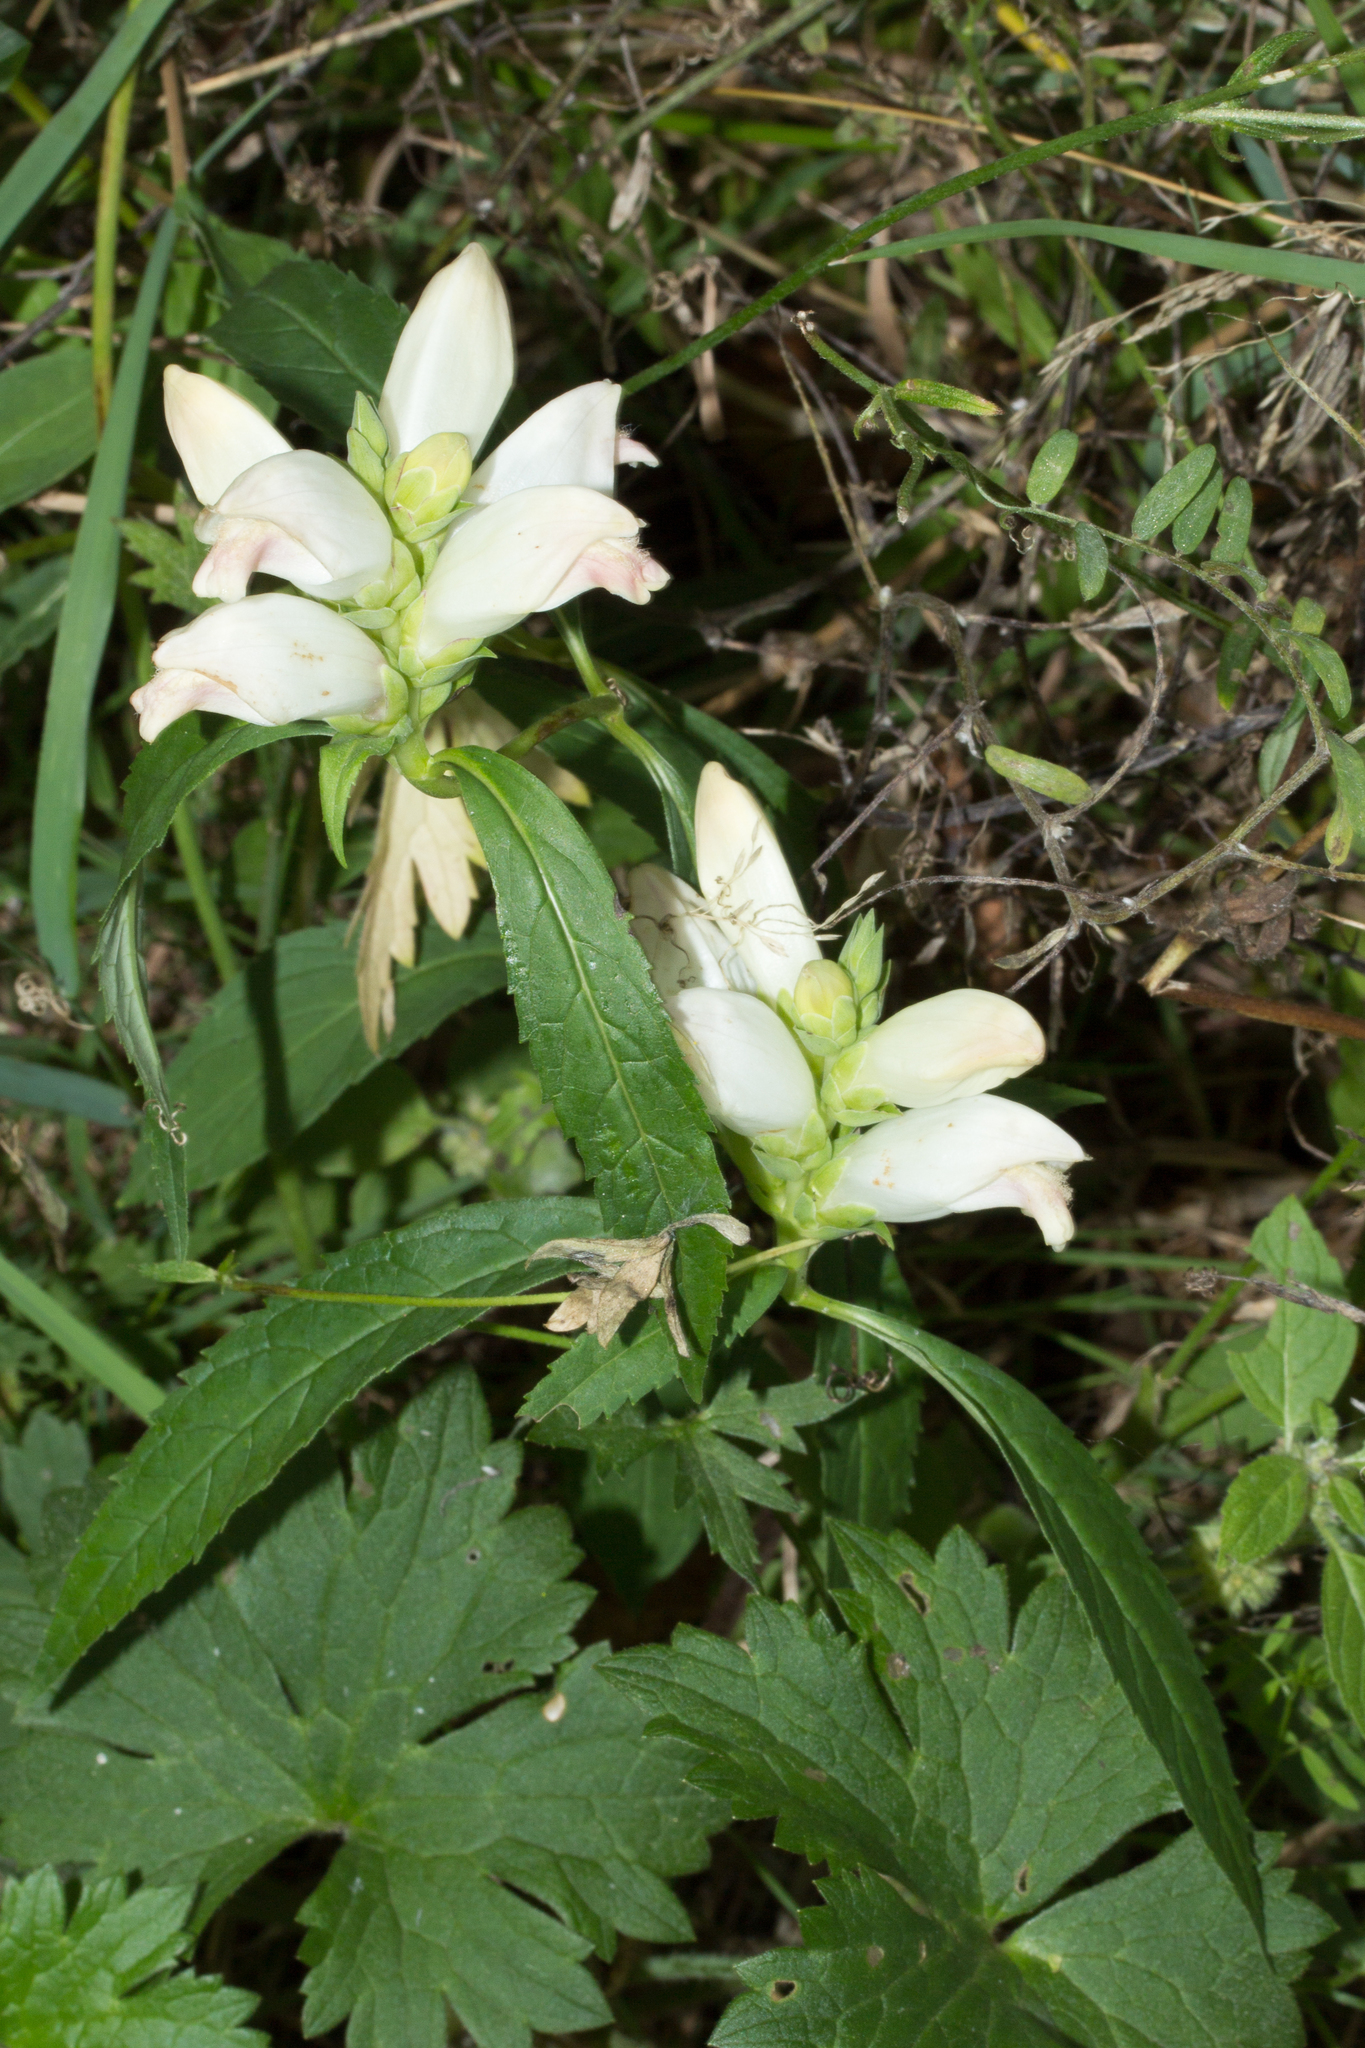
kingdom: Plantae
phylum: Tracheophyta
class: Magnoliopsida
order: Lamiales
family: Plantaginaceae
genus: Chelone
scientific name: Chelone glabra
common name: Snakehead
